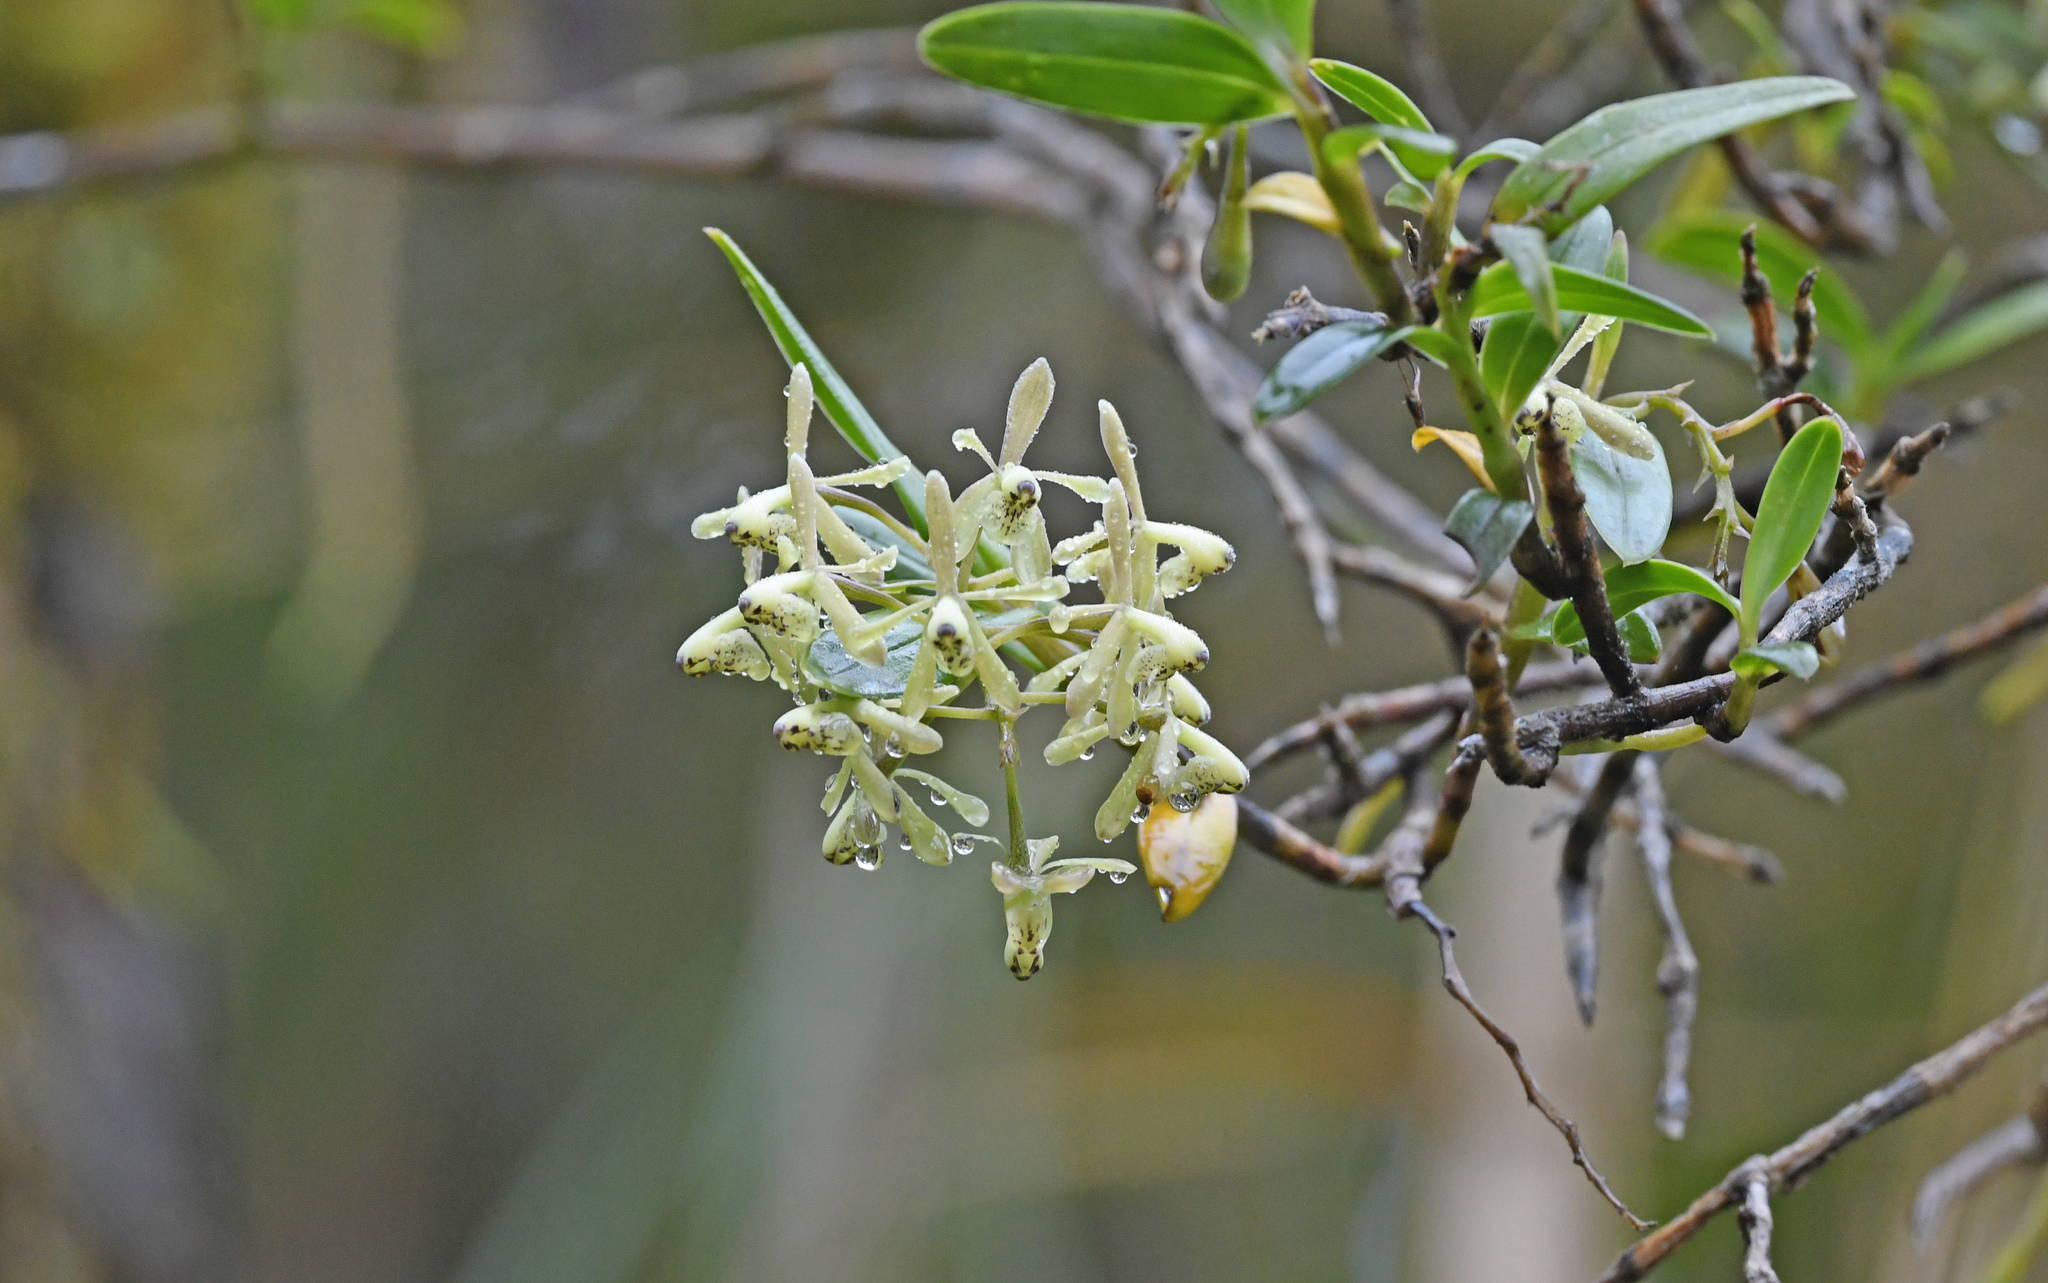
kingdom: Plantae
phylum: Tracheophyta
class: Liliopsida
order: Asparagales
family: Orchidaceae
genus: Epidendrum
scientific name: Epidendrum erosum
